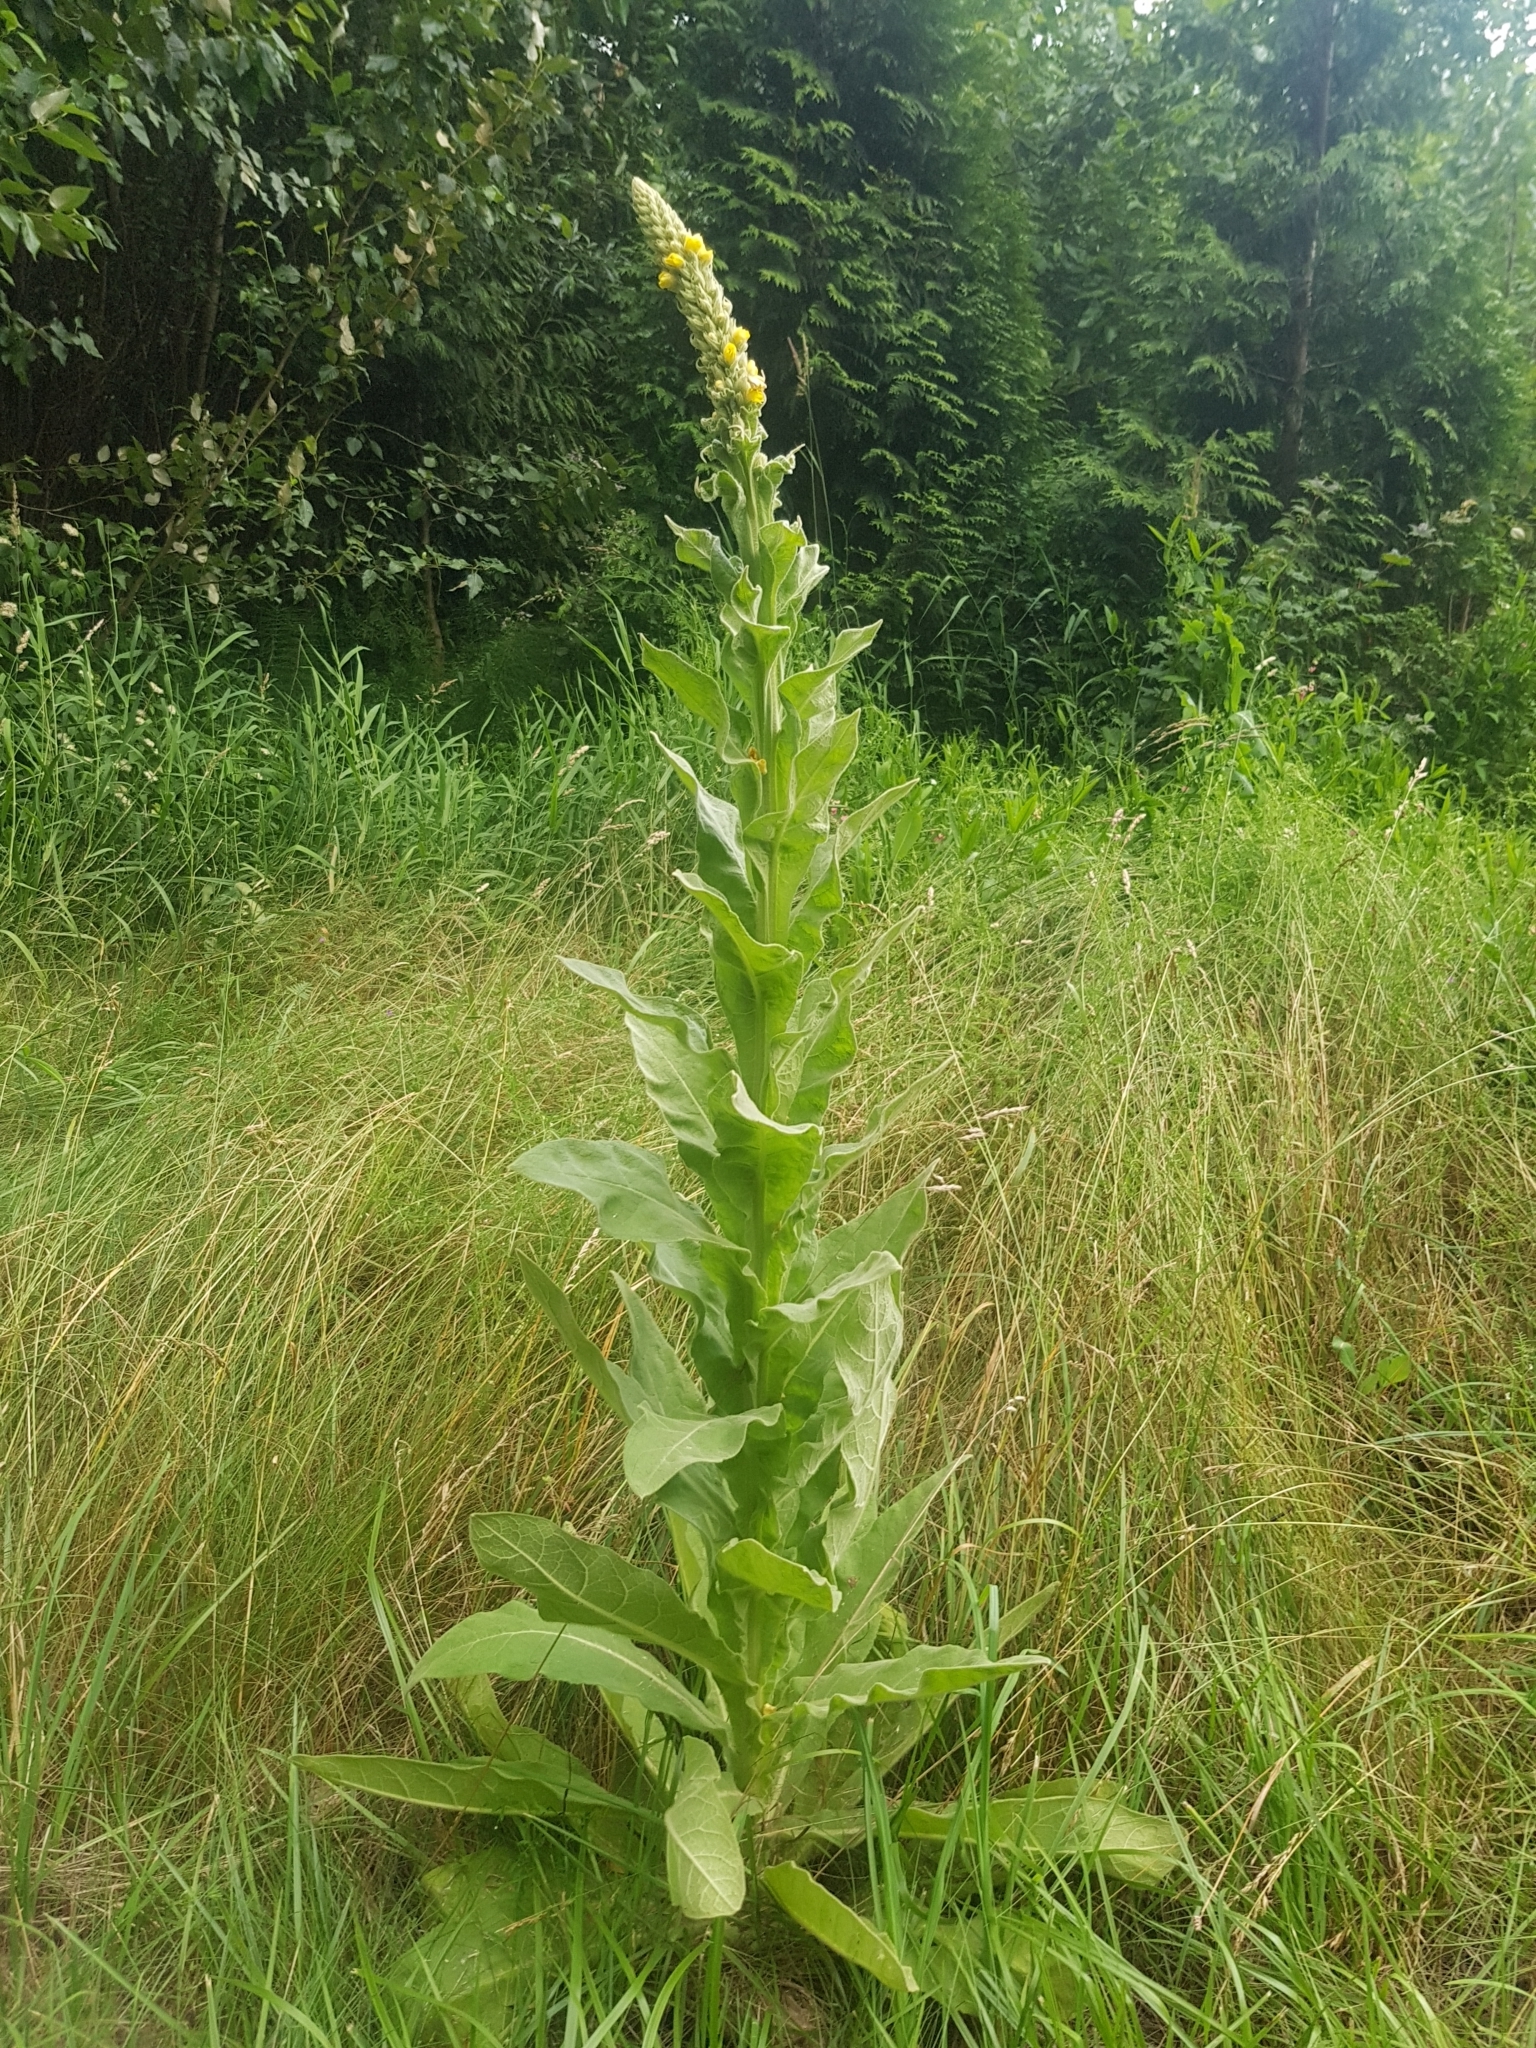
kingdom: Plantae
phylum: Tracheophyta
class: Magnoliopsida
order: Lamiales
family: Scrophulariaceae
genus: Verbascum
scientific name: Verbascum thapsus
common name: Common mullein
